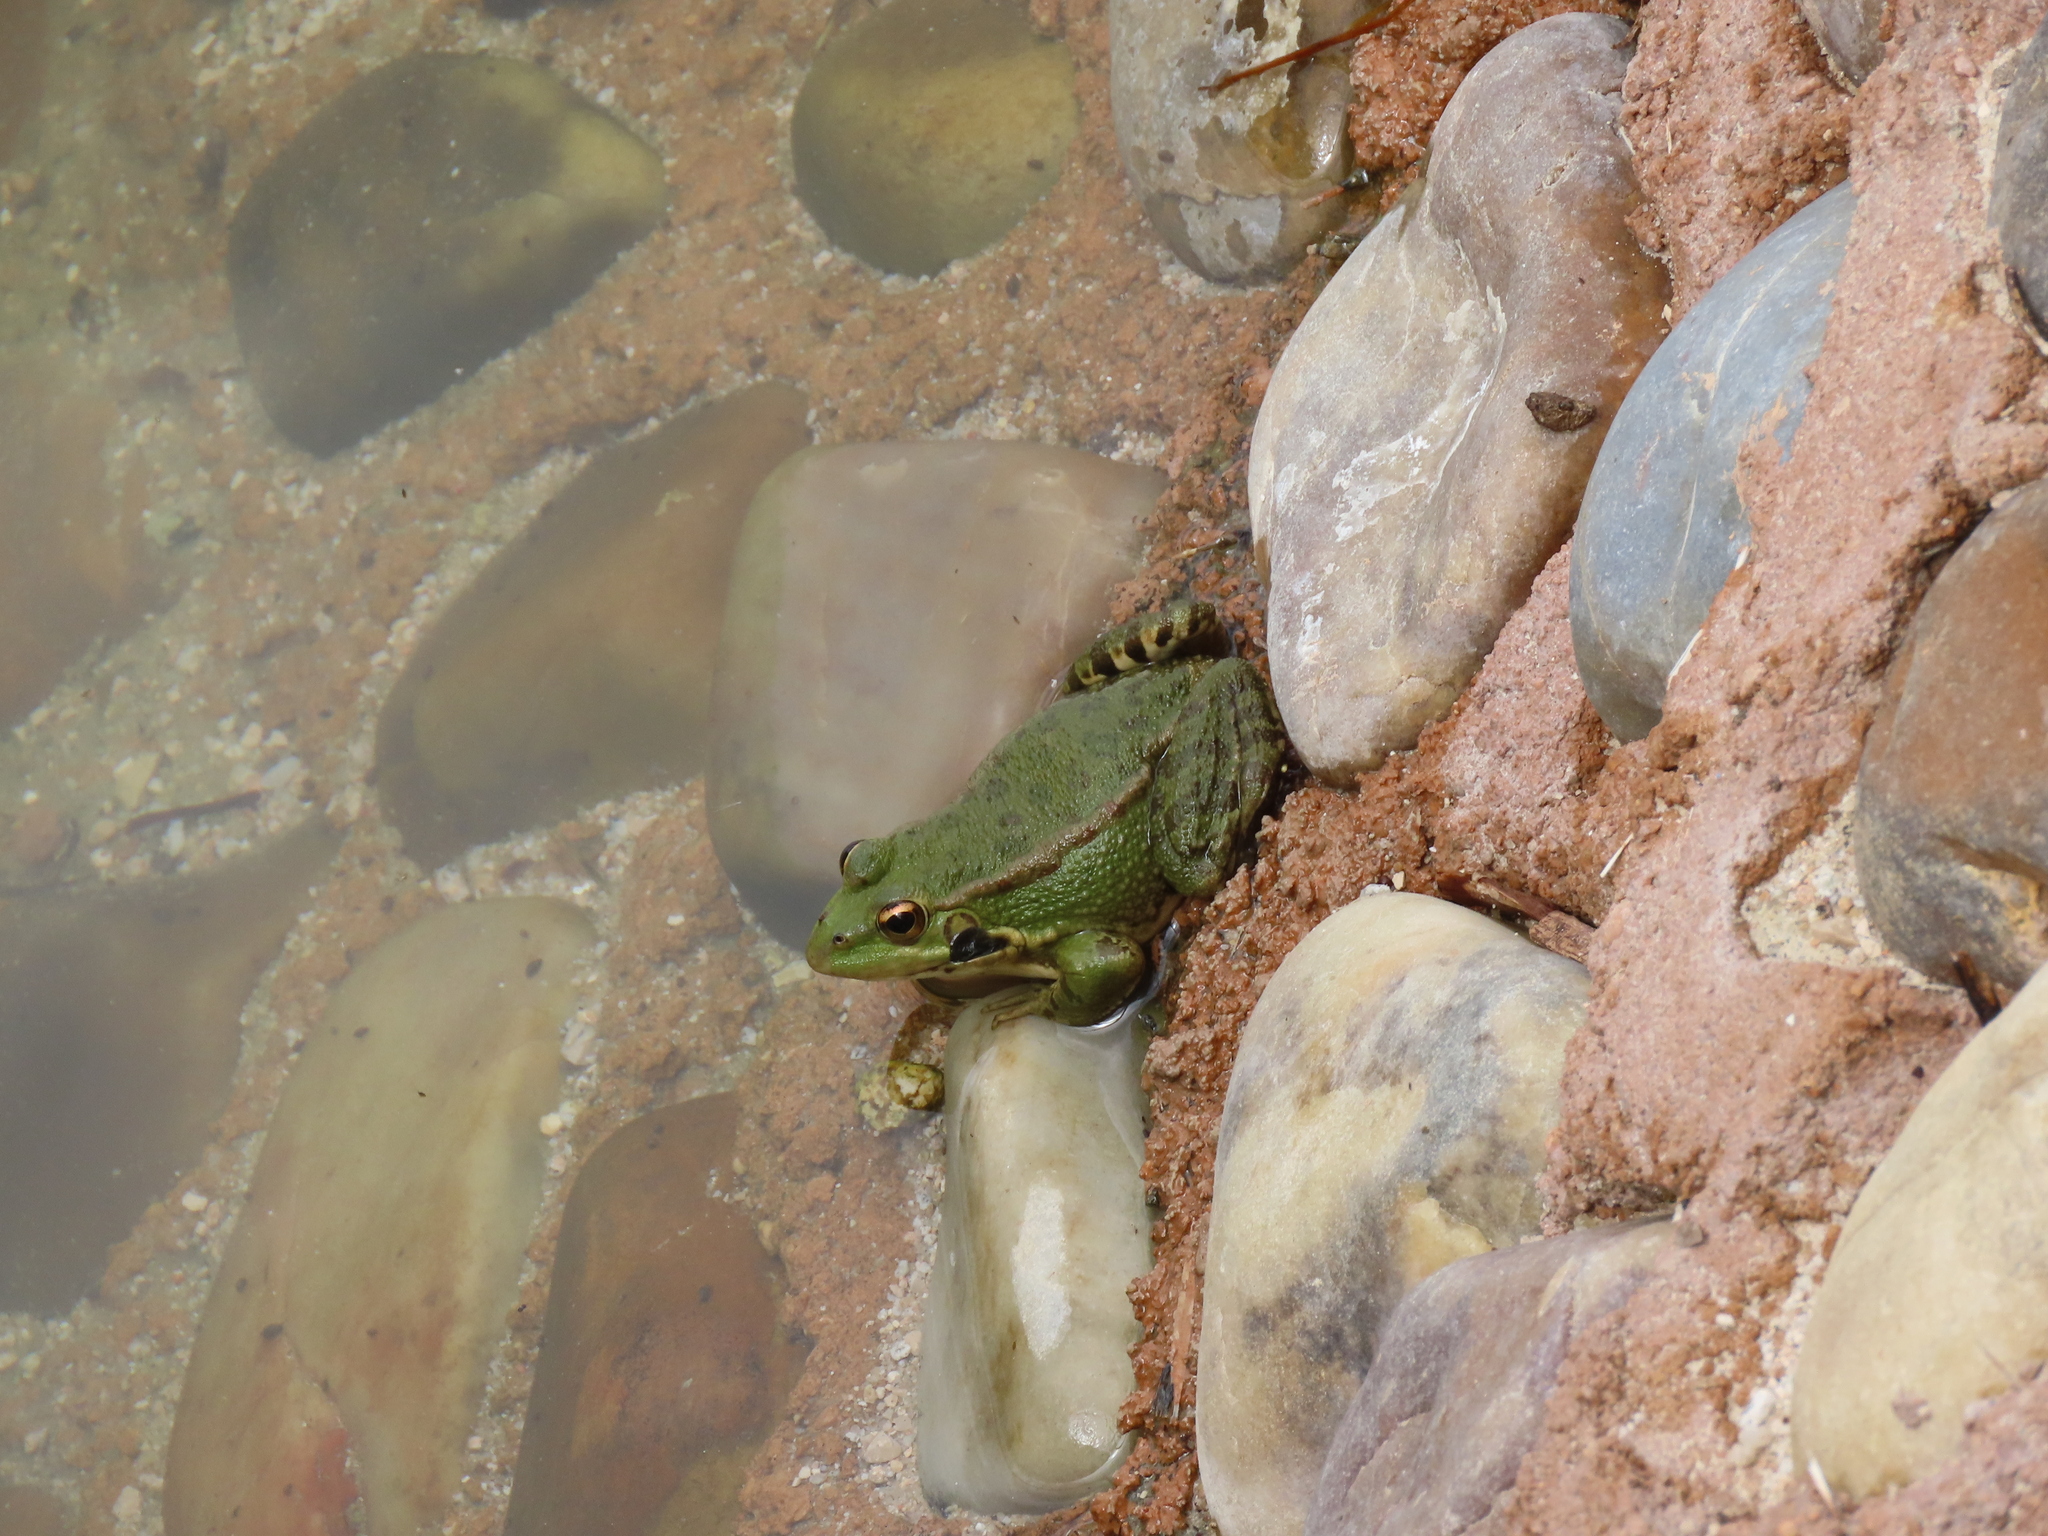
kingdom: Animalia
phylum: Chordata
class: Amphibia
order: Anura
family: Ranidae
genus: Pelophylax
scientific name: Pelophylax perezi
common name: Perez's frog
